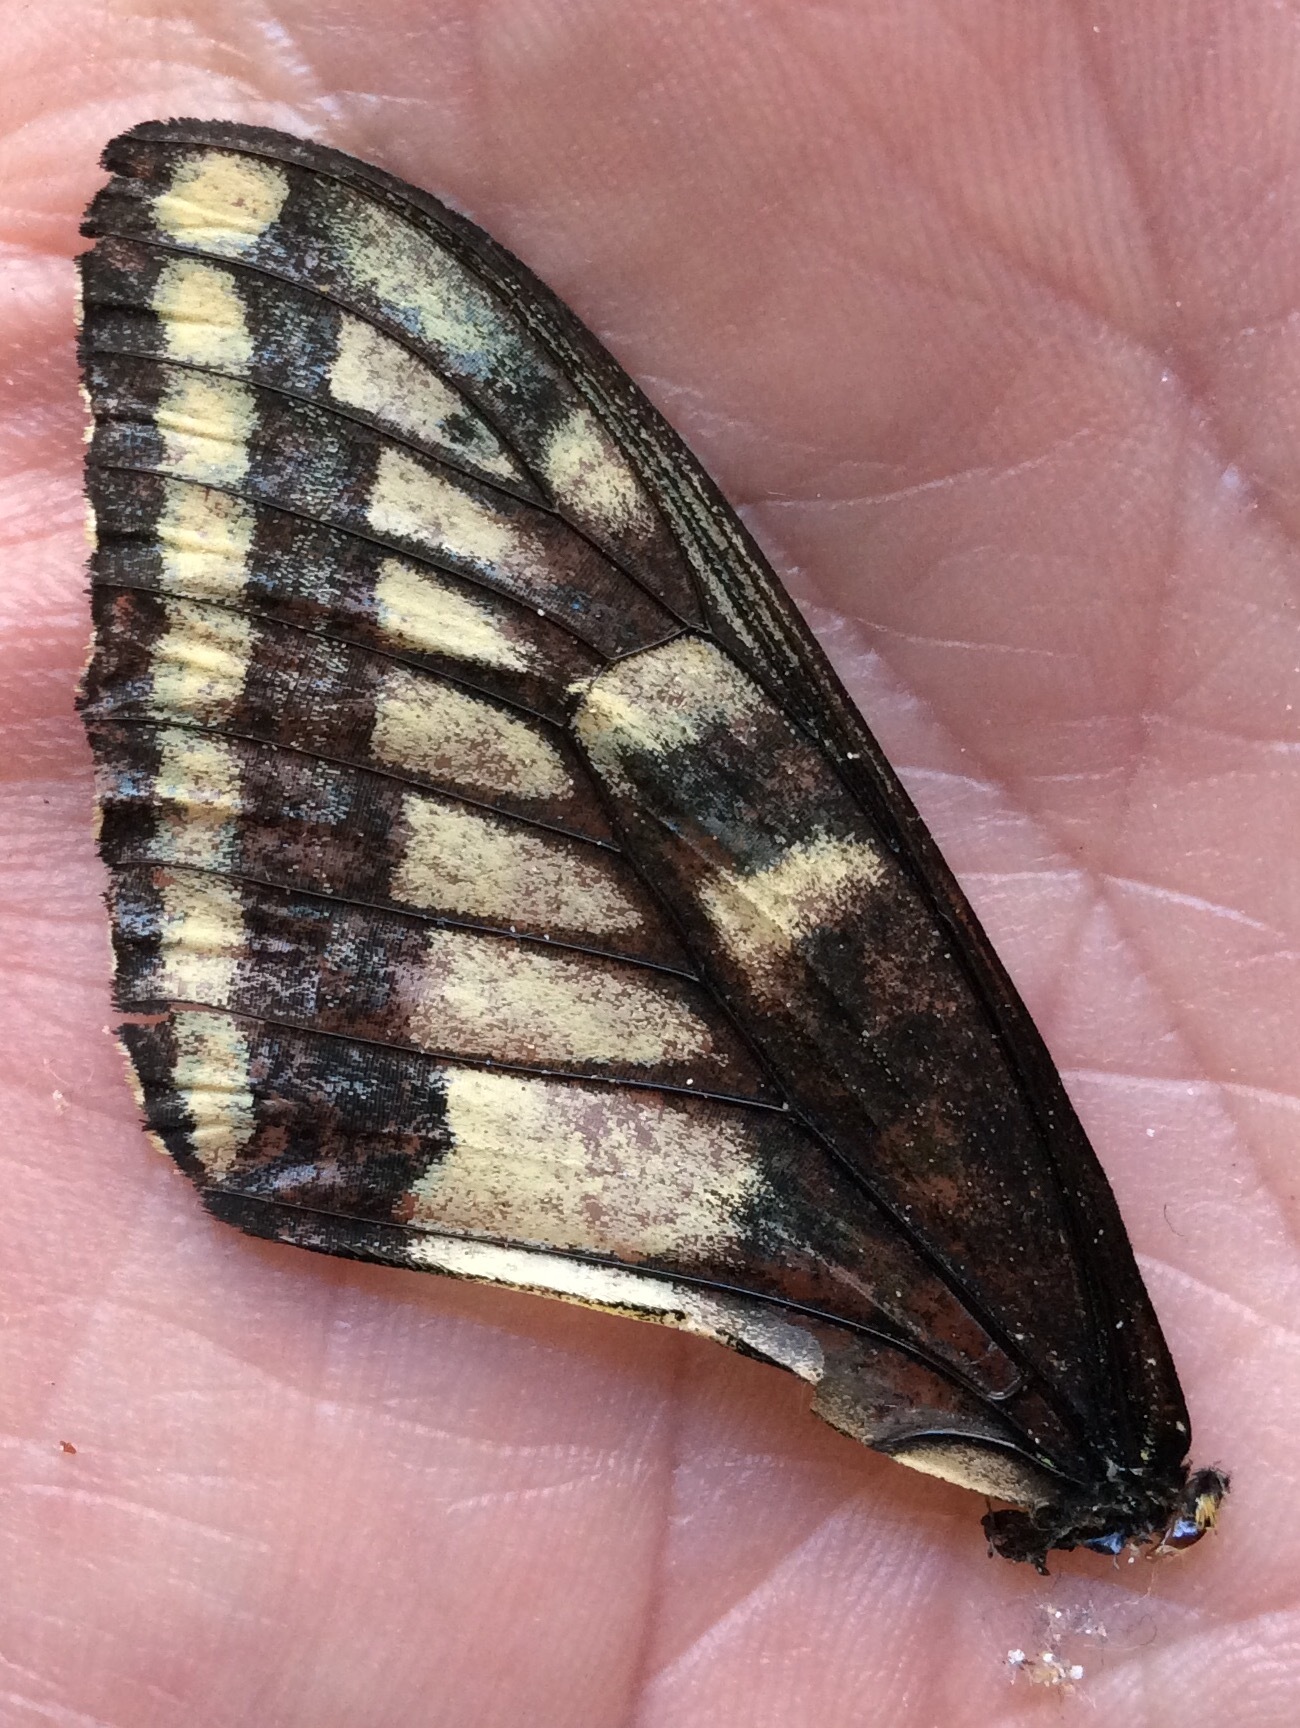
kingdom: Animalia
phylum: Arthropoda
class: Insecta
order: Lepidoptera
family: Papilionidae
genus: Papilio
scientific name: Papilio zelicaon
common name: Anise swallowtail
